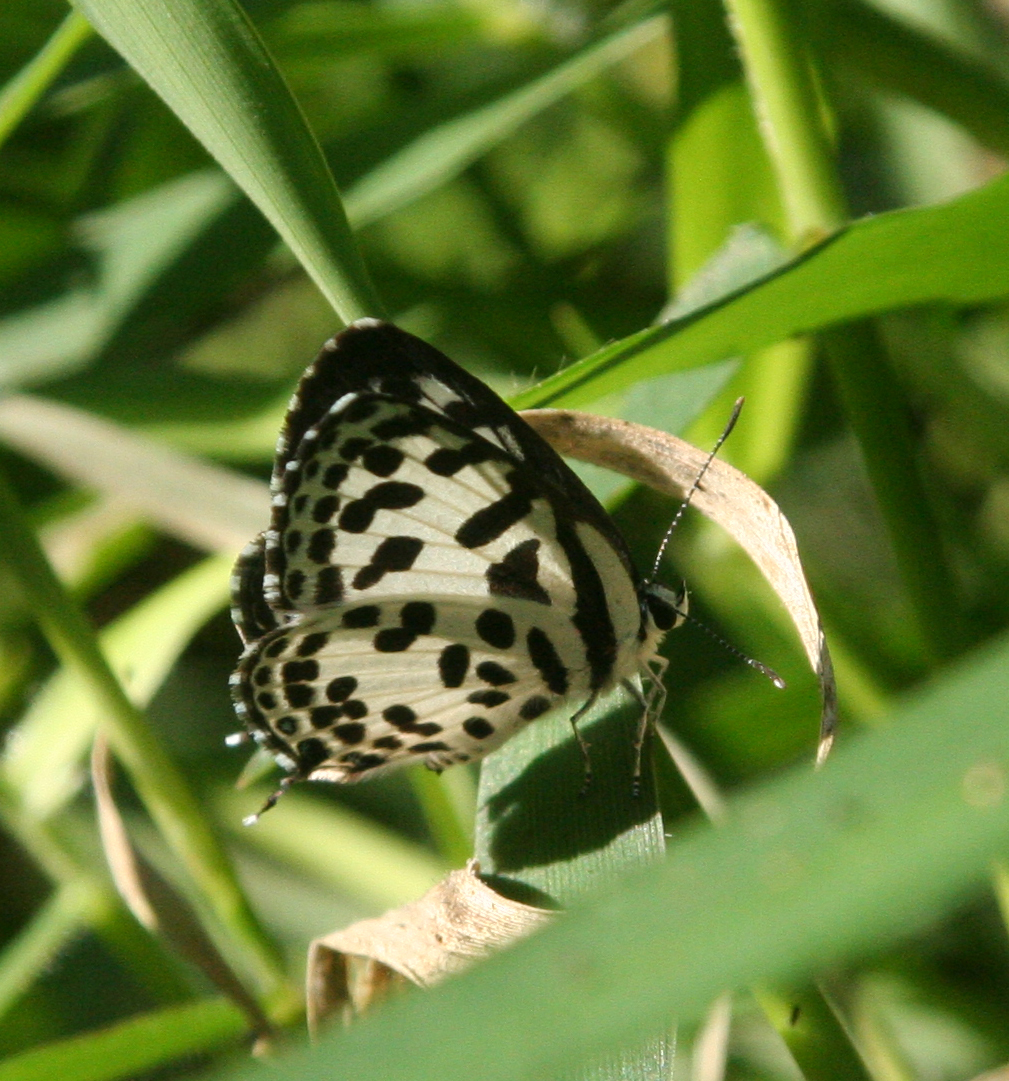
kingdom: Animalia
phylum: Arthropoda
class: Insecta
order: Lepidoptera
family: Lycaenidae
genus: Castalius
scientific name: Castalius rosimon
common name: Common pierrot
